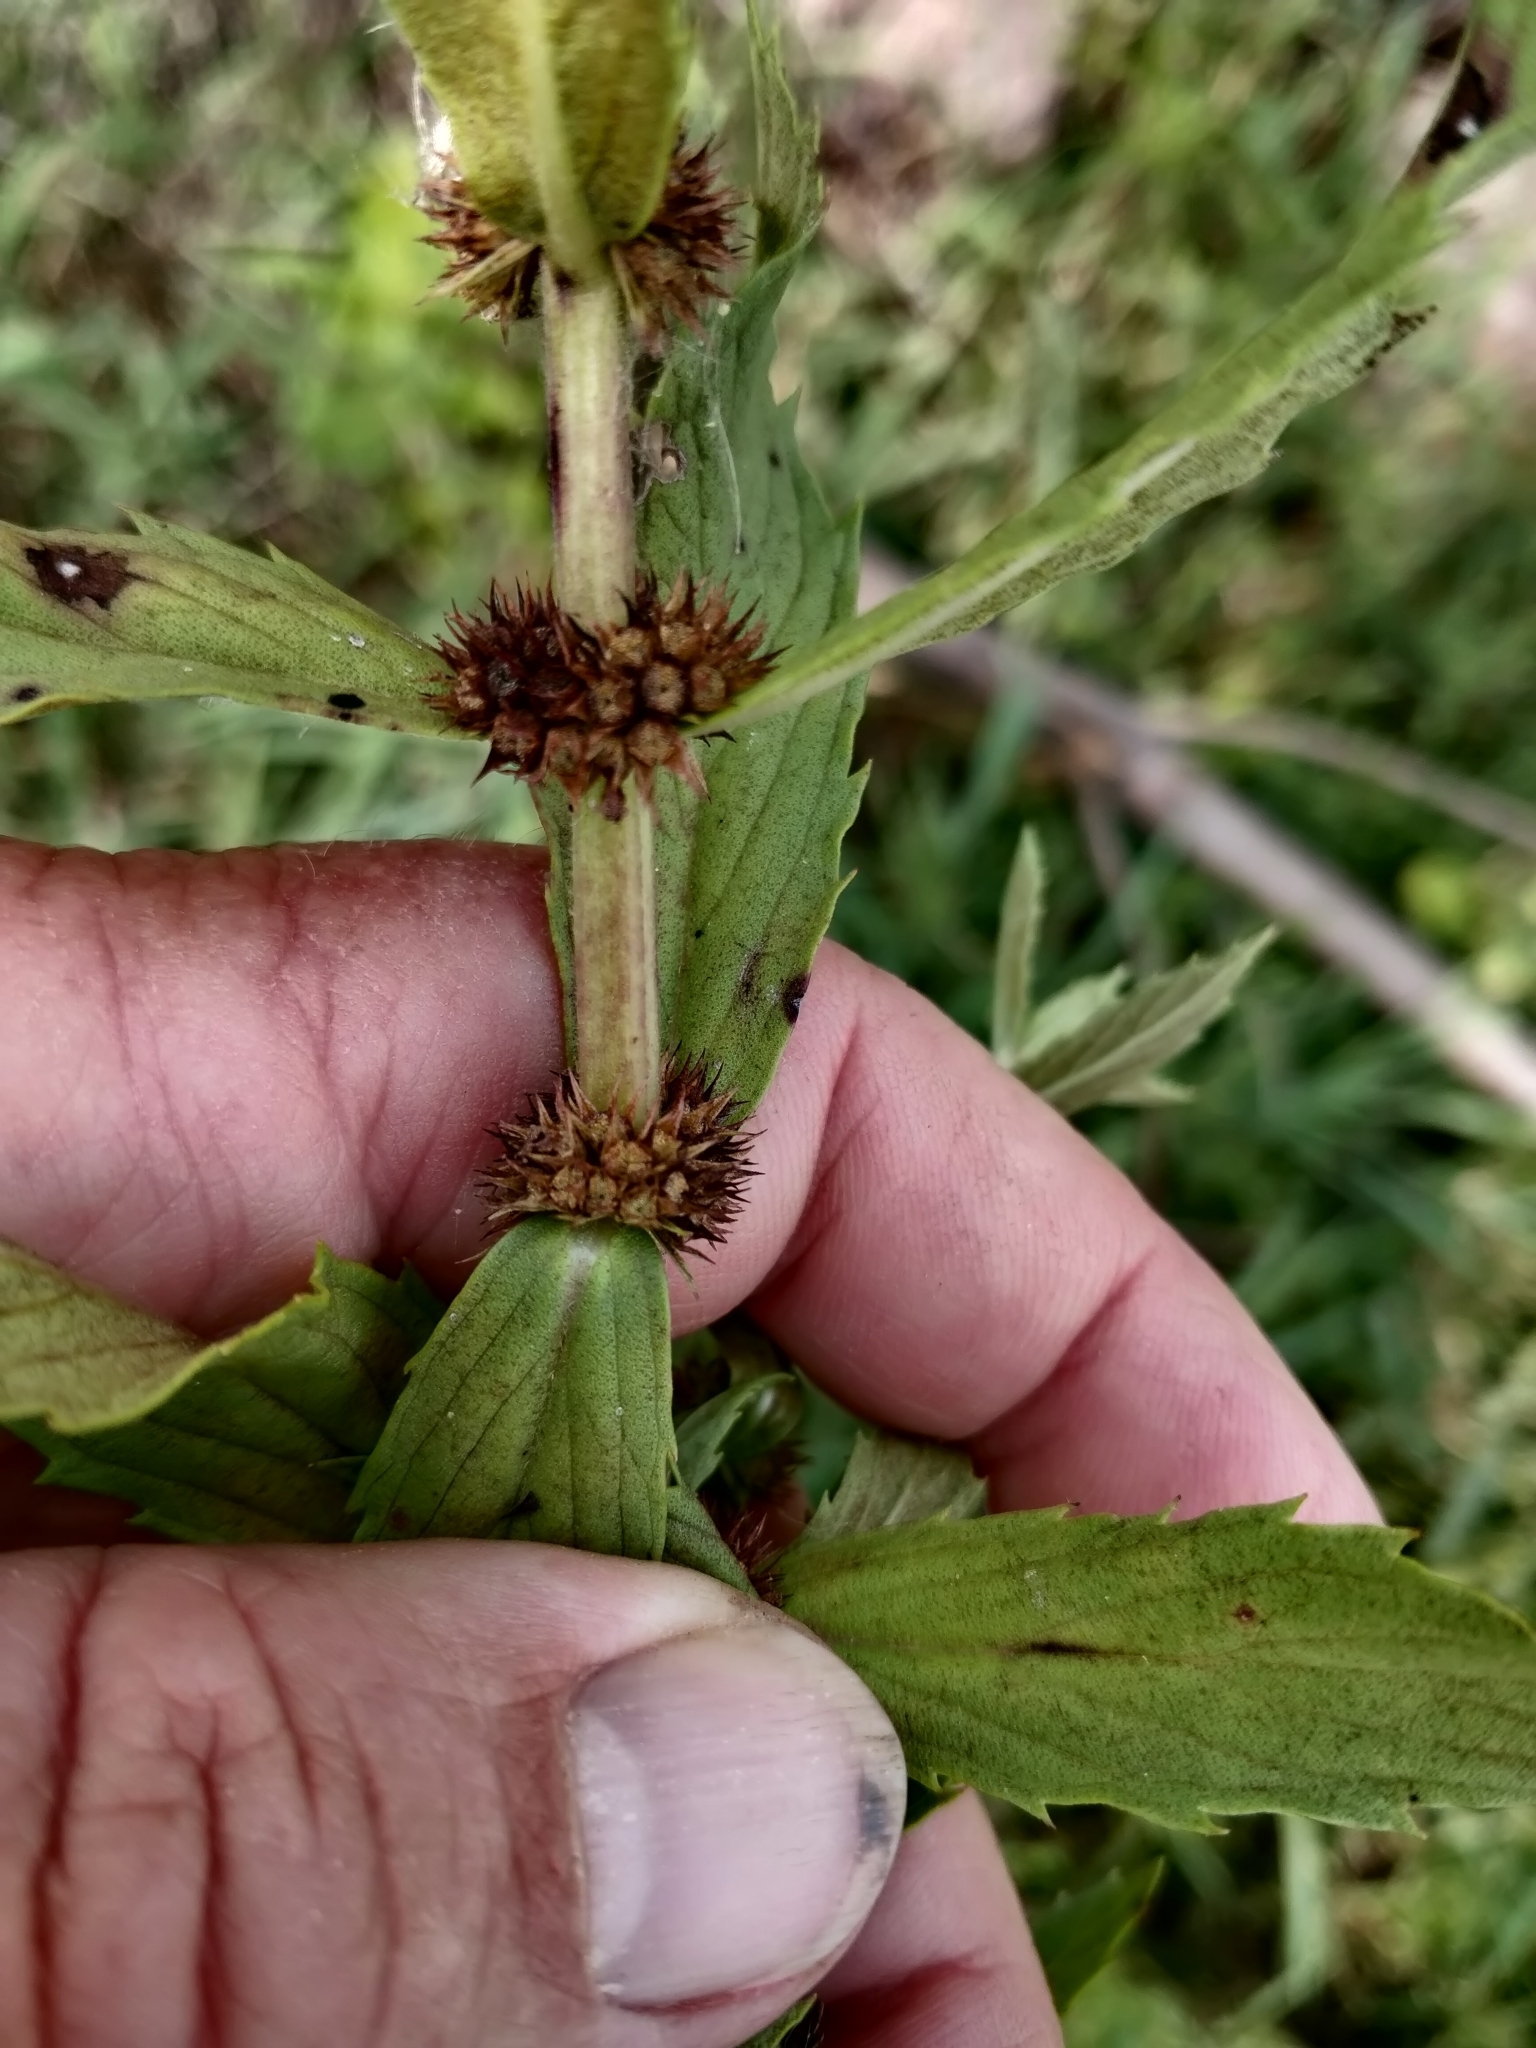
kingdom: Plantae
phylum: Tracheophyta
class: Magnoliopsida
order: Lamiales
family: Lamiaceae
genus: Lycopus
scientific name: Lycopus asper
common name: Rough water-horehound
